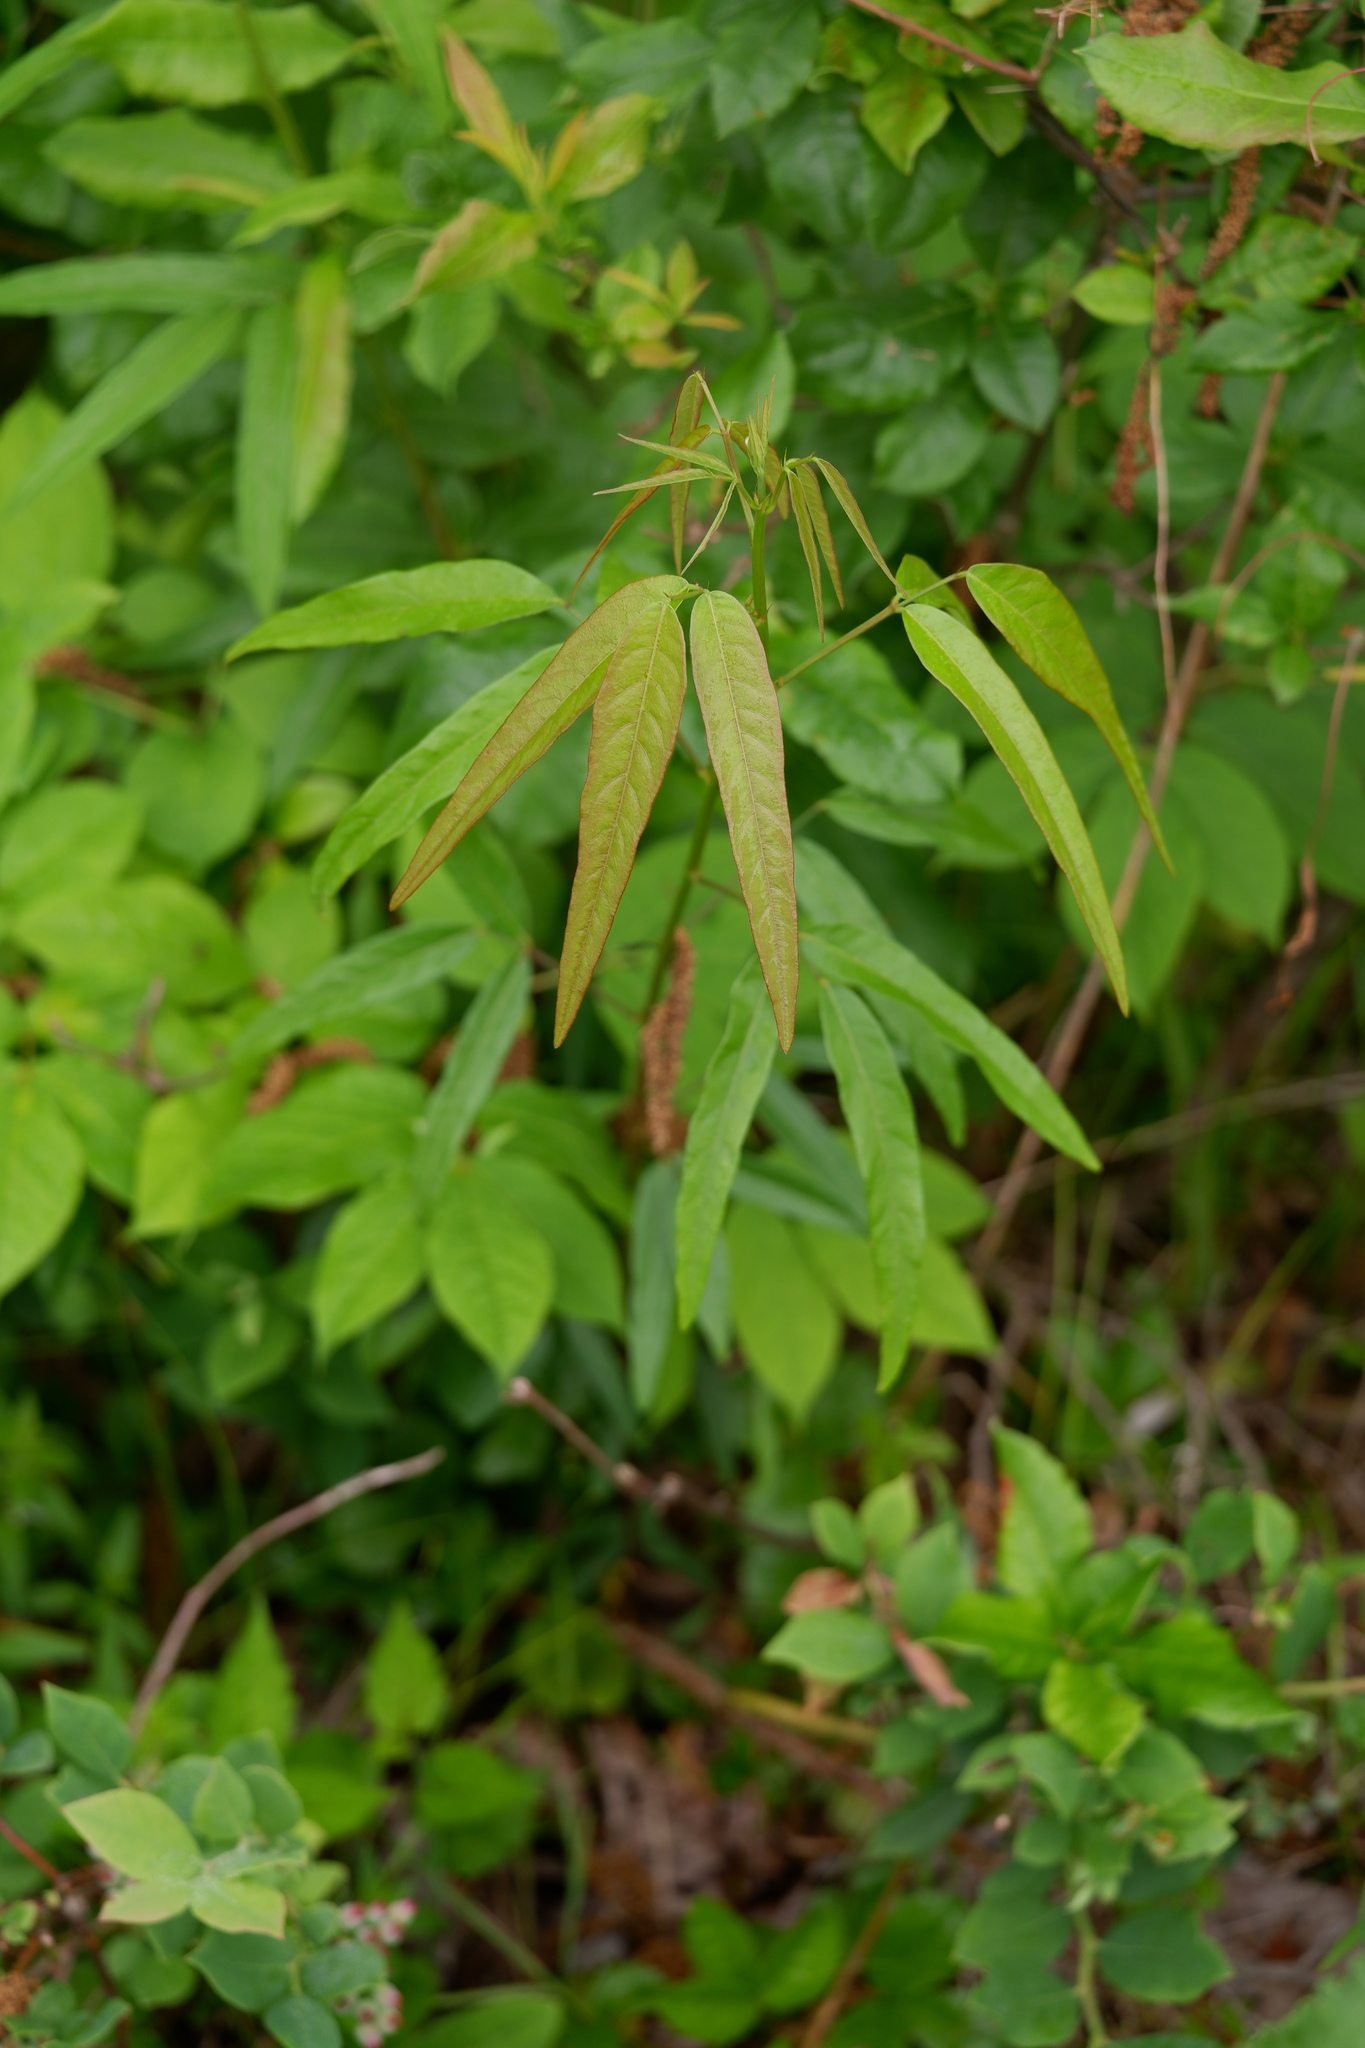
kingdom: Plantae
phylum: Tracheophyta
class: Magnoliopsida
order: Fabales
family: Fabaceae
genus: Desmodium
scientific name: Desmodium paniculatum
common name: Panicled tick-clover
